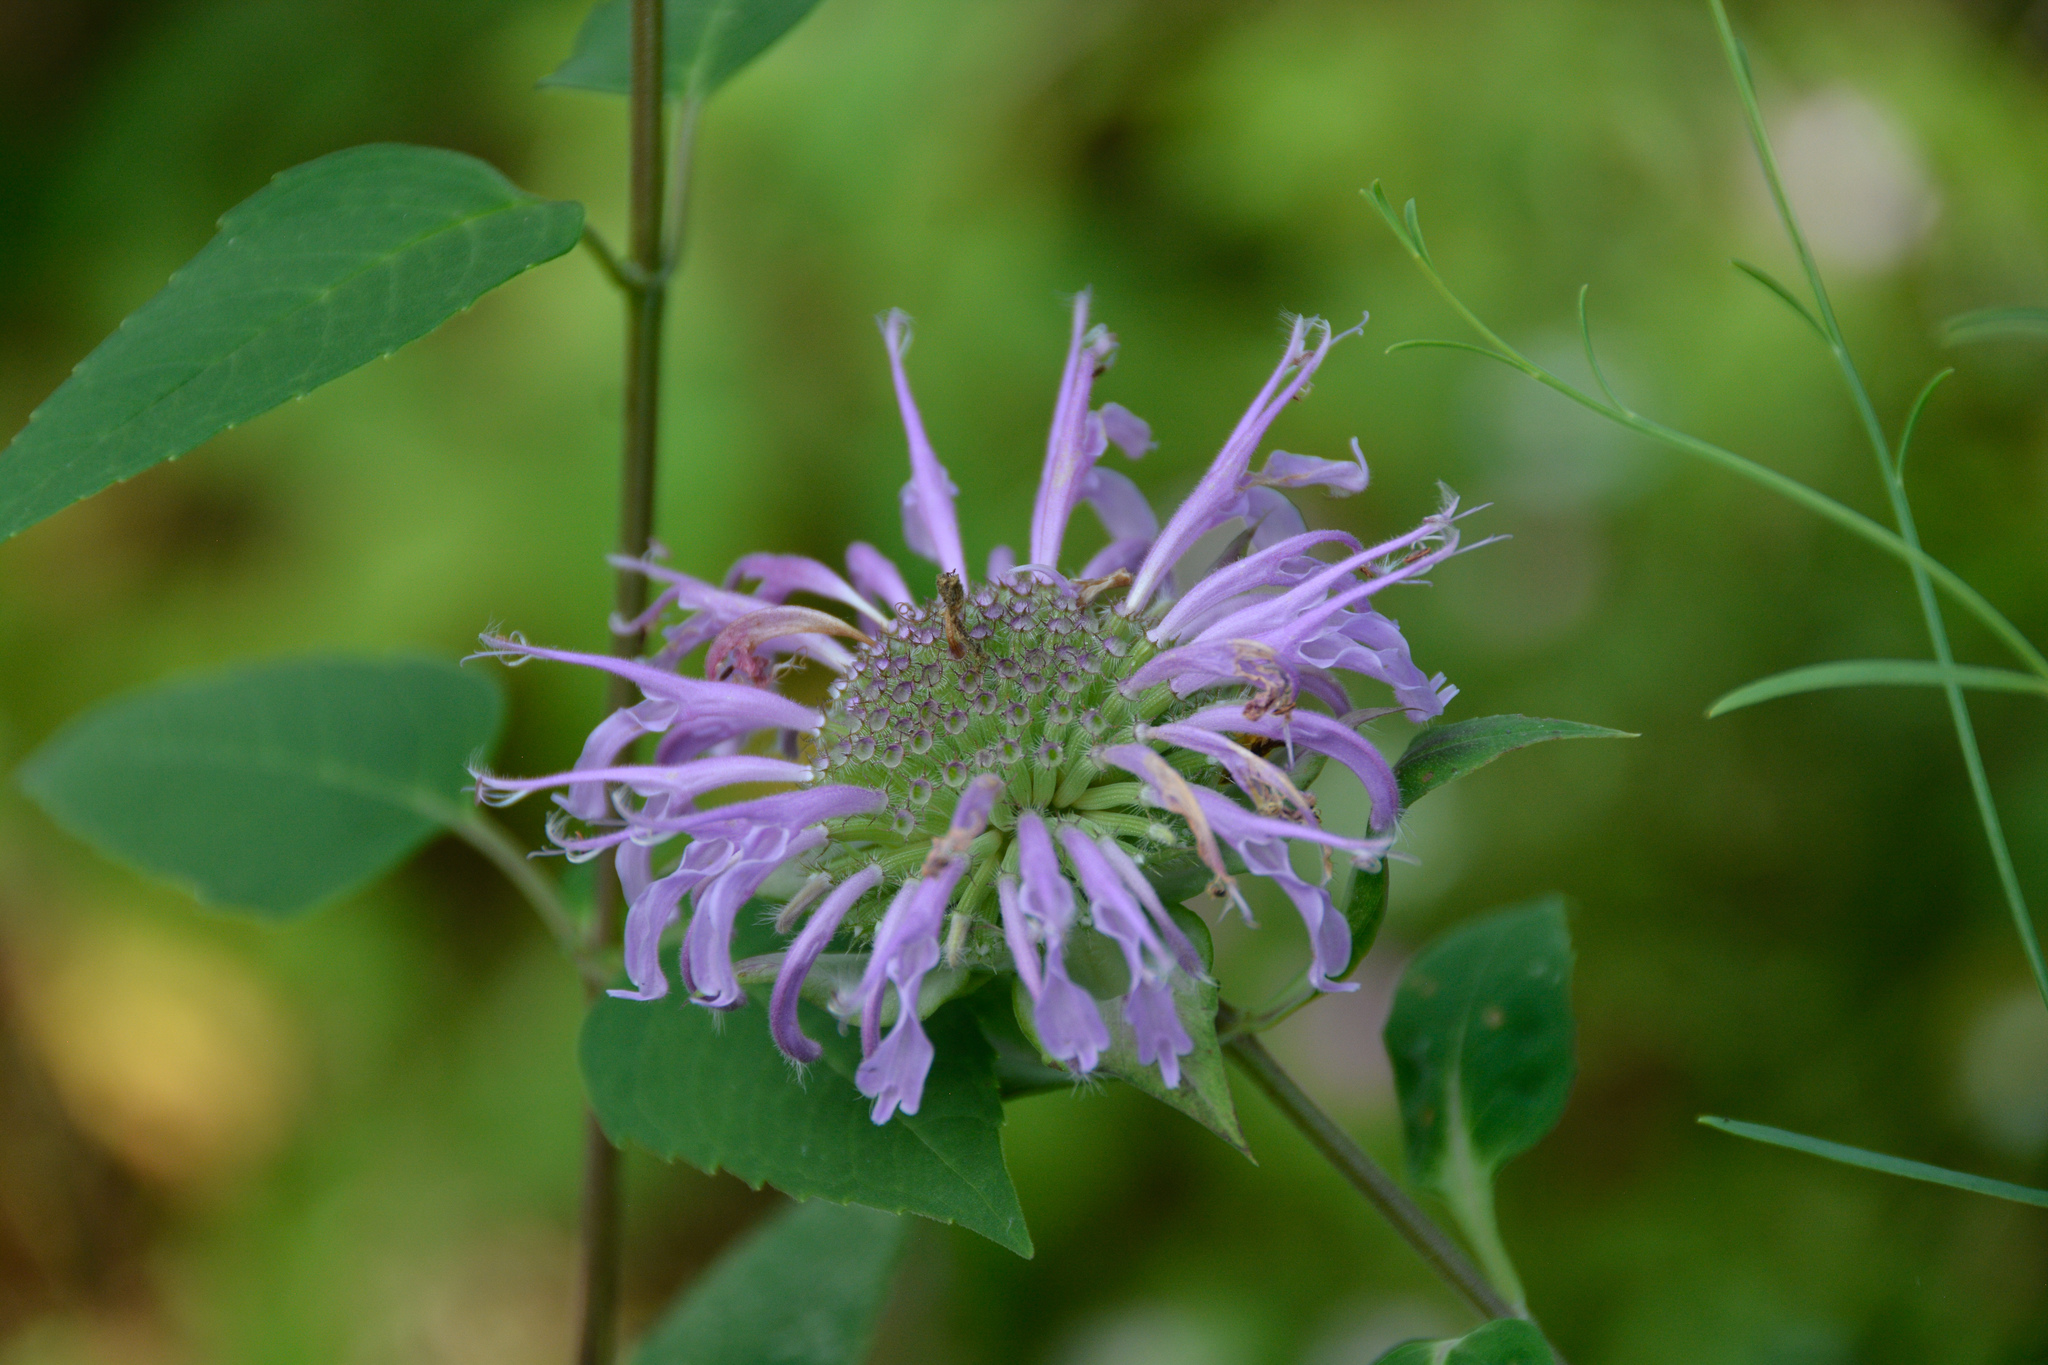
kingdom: Plantae
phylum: Tracheophyta
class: Magnoliopsida
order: Lamiales
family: Lamiaceae
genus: Monarda
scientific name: Monarda fistulosa
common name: Purple beebalm
